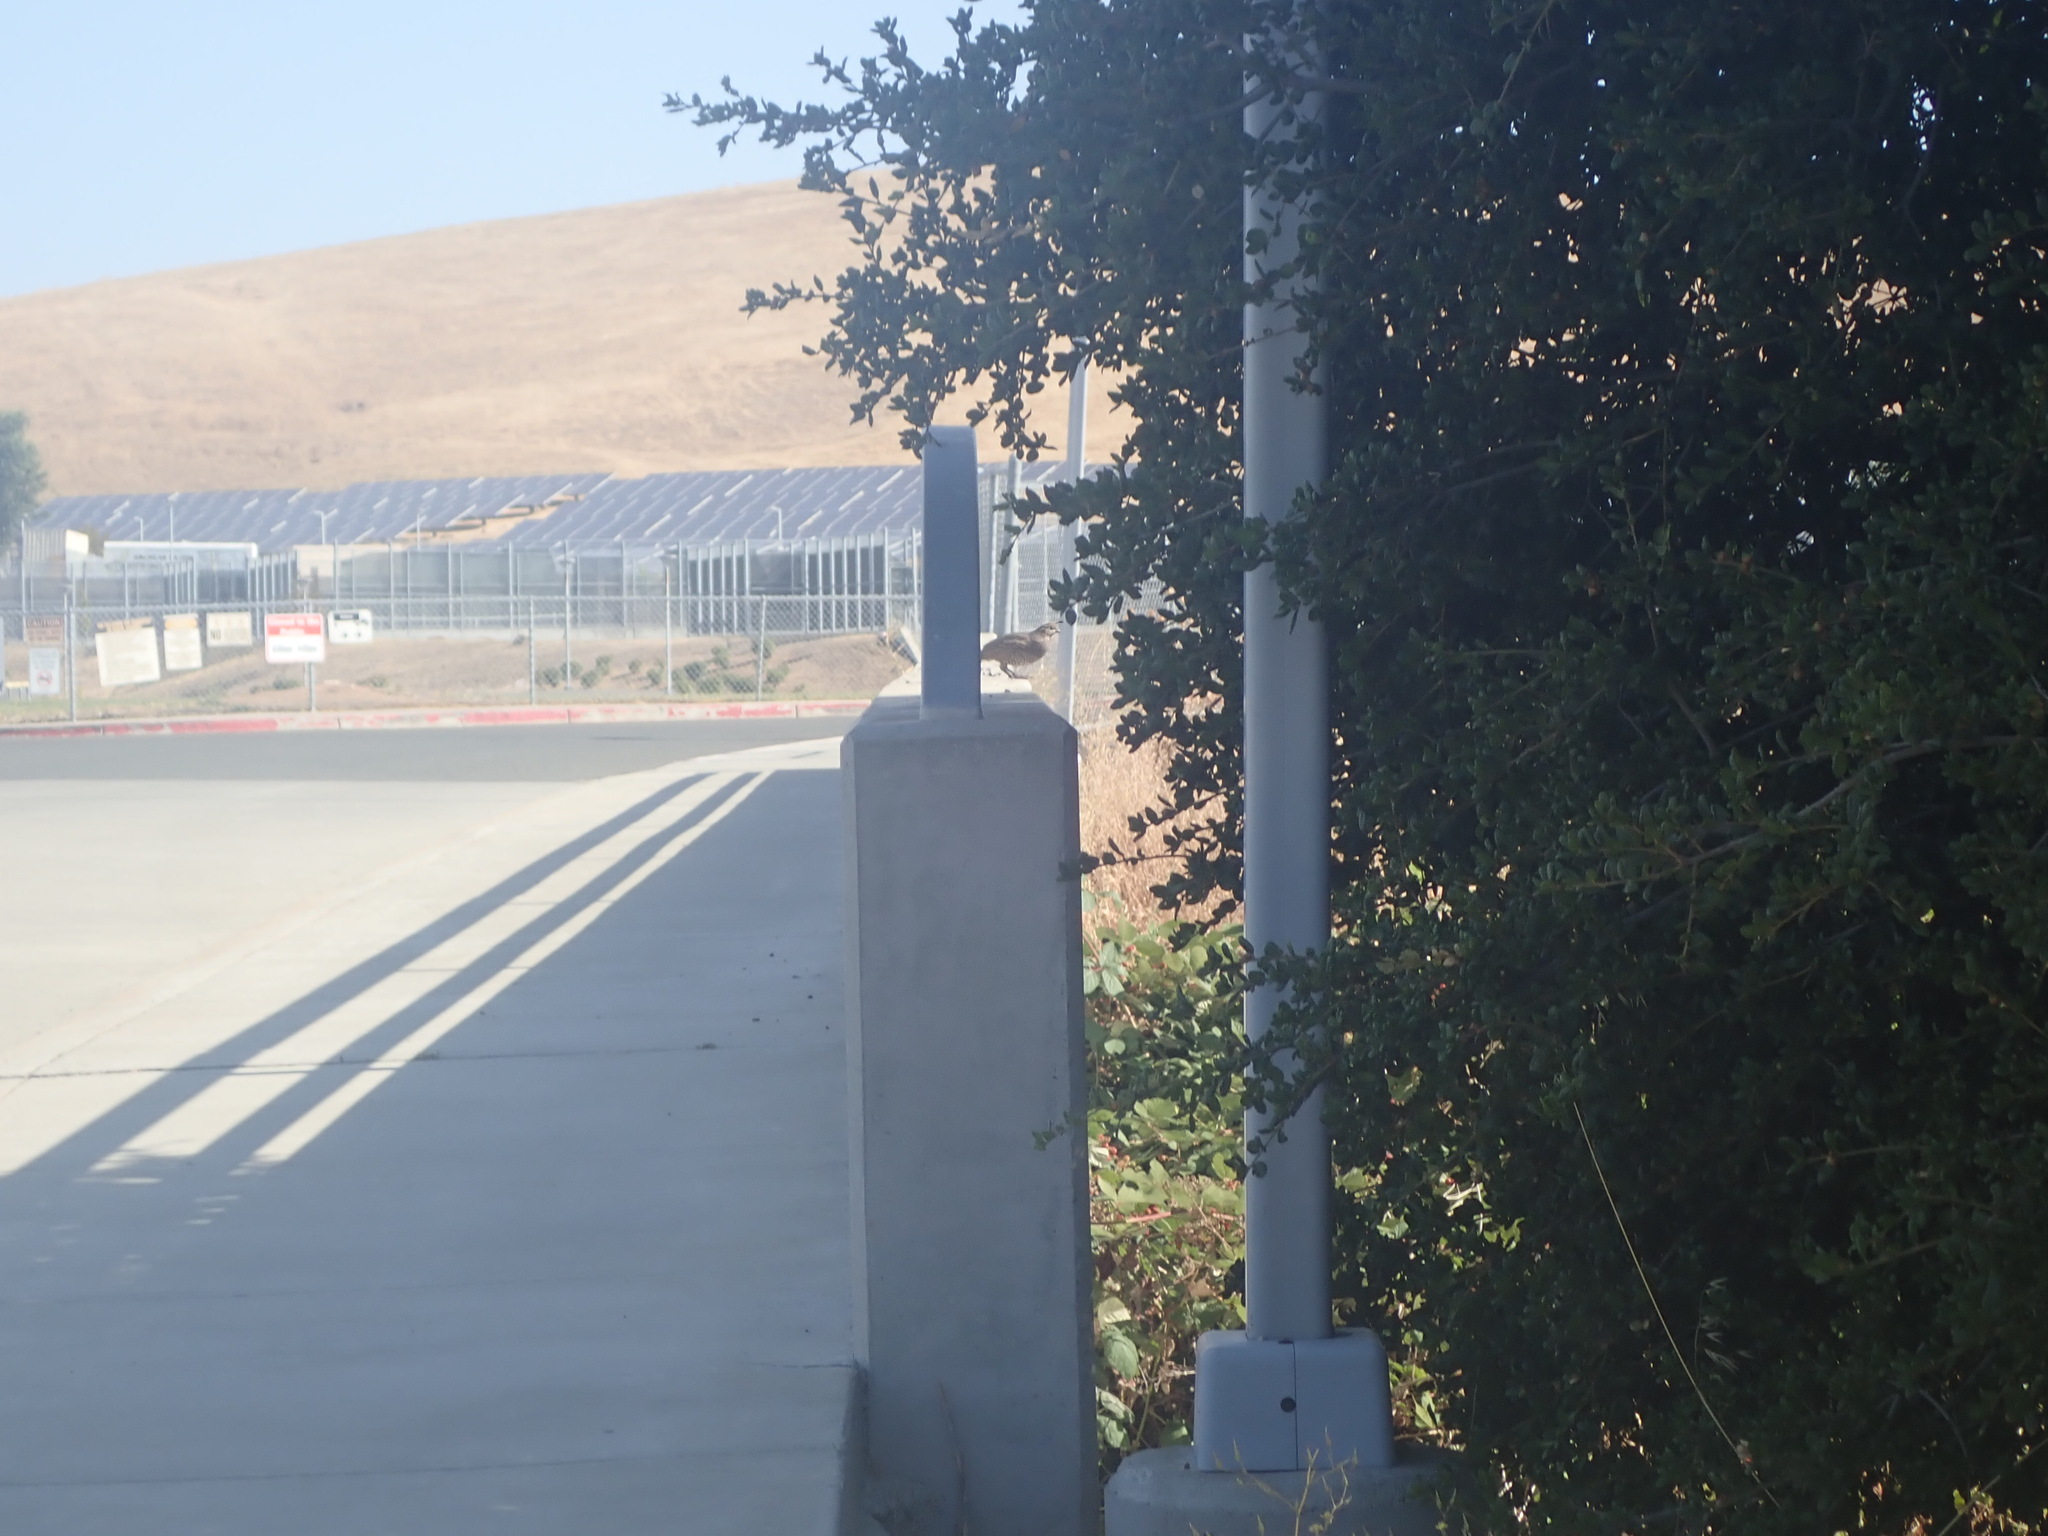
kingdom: Animalia
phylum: Chordata
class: Aves
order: Galliformes
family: Odontophoridae
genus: Callipepla
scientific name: Callipepla californica
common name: California quail
